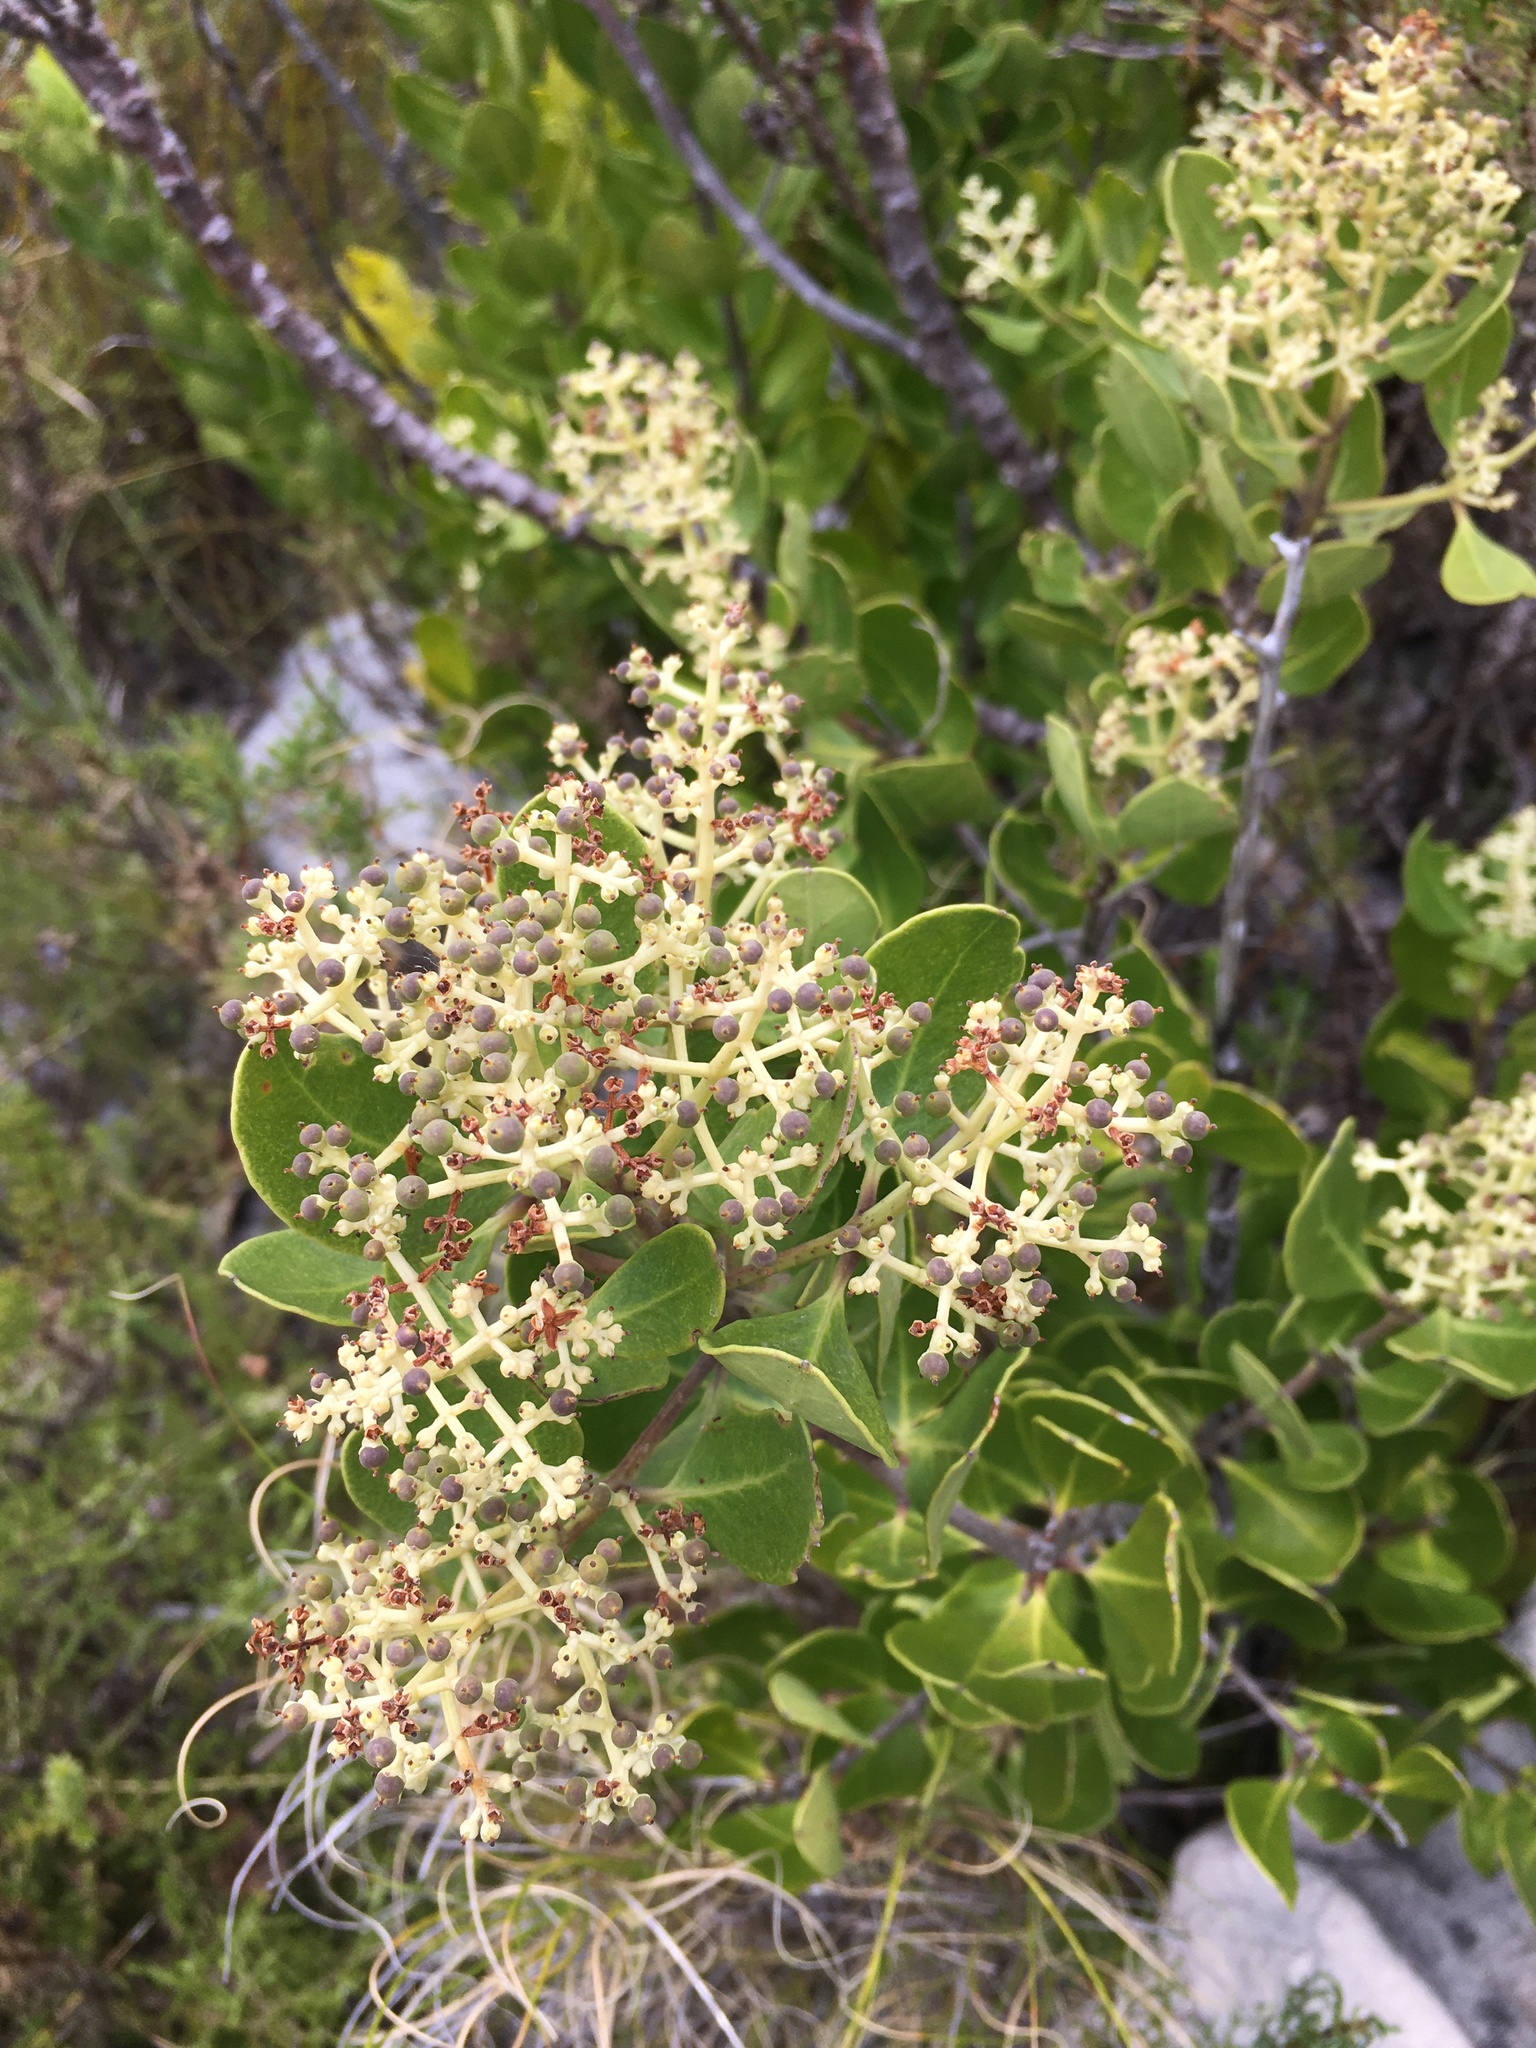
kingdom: Plantae
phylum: Tracheophyta
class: Magnoliopsida
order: Lamiales
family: Oleaceae
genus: Olea
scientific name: Olea capensis
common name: Black ironwood
